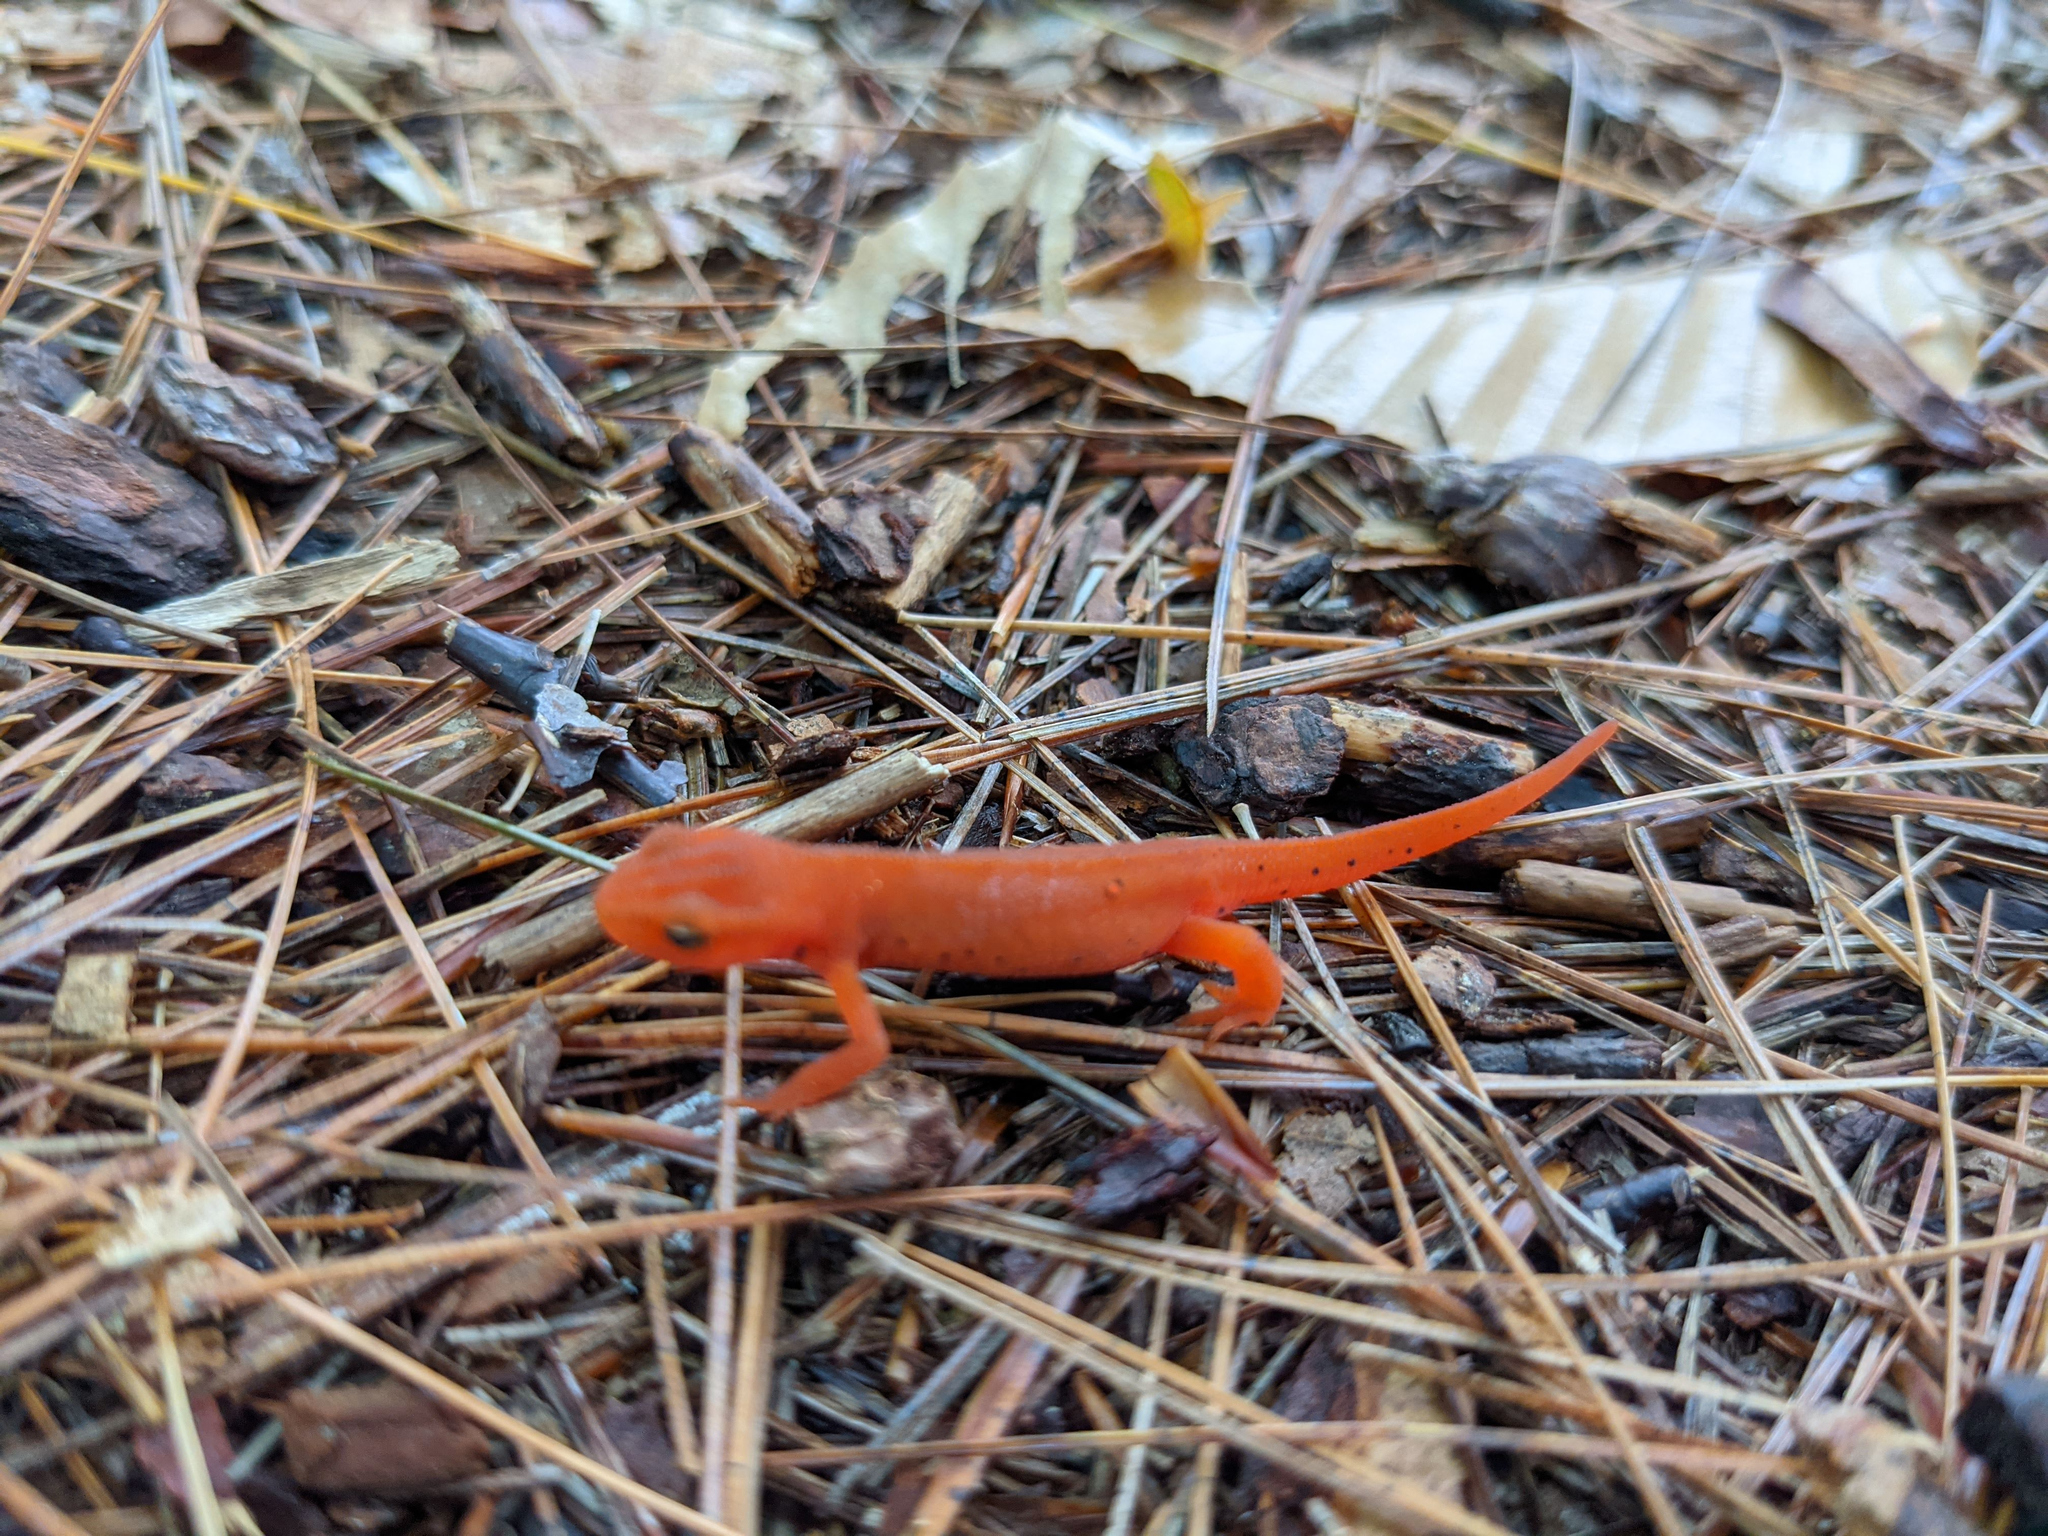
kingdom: Animalia
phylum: Chordata
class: Amphibia
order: Caudata
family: Salamandridae
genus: Notophthalmus
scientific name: Notophthalmus viridescens
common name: Eastern newt
